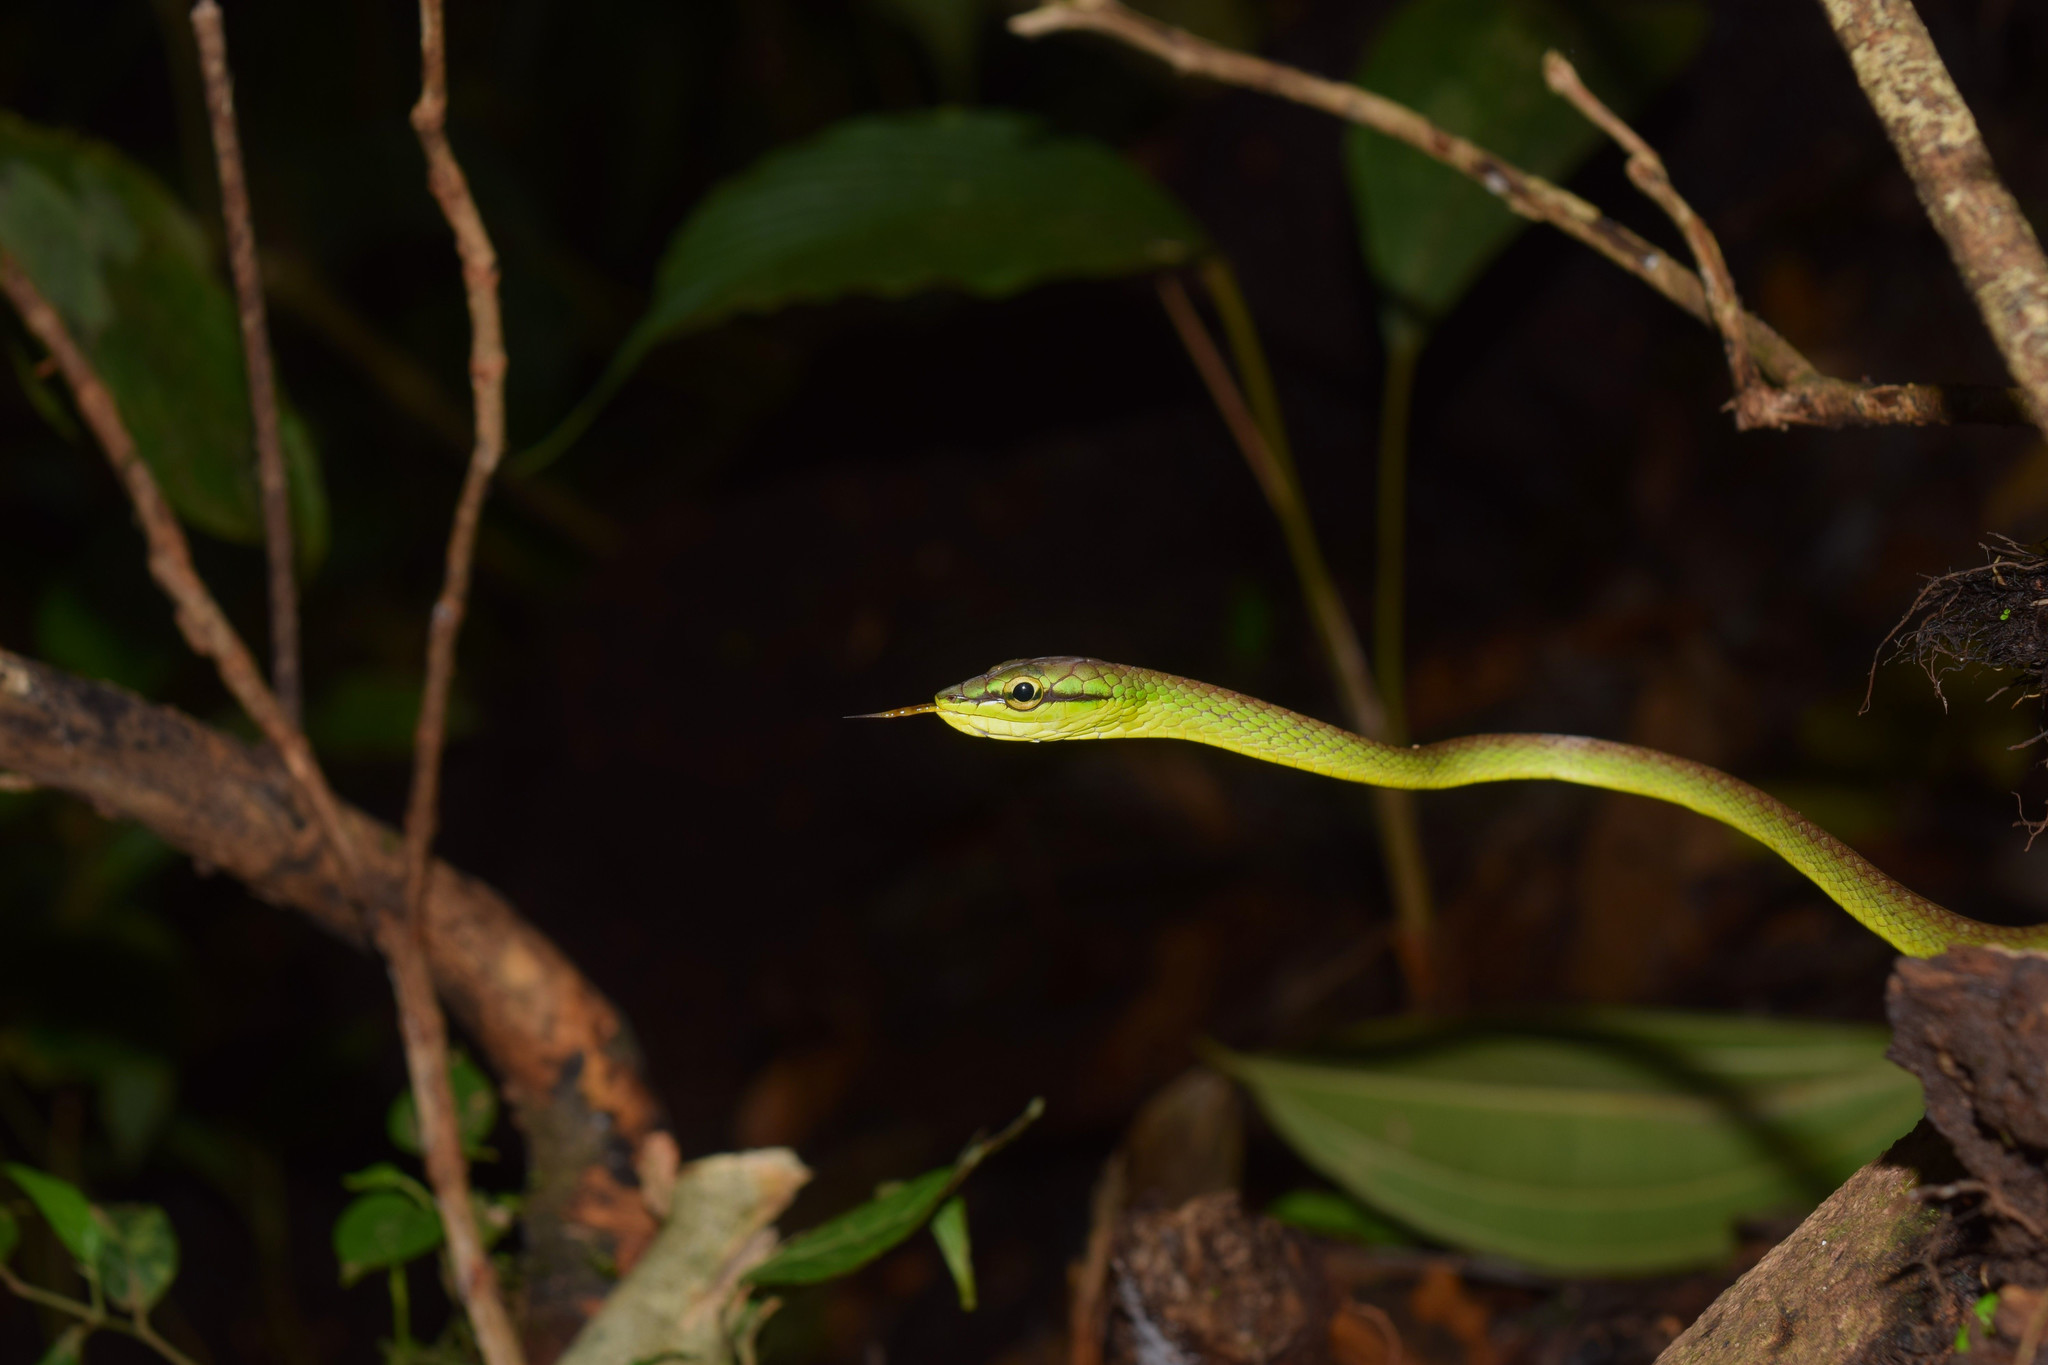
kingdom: Animalia
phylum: Chordata
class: Squamata
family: Colubridae
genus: Oxybelis
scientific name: Oxybelis brevirostris
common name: Cope's vine snake
